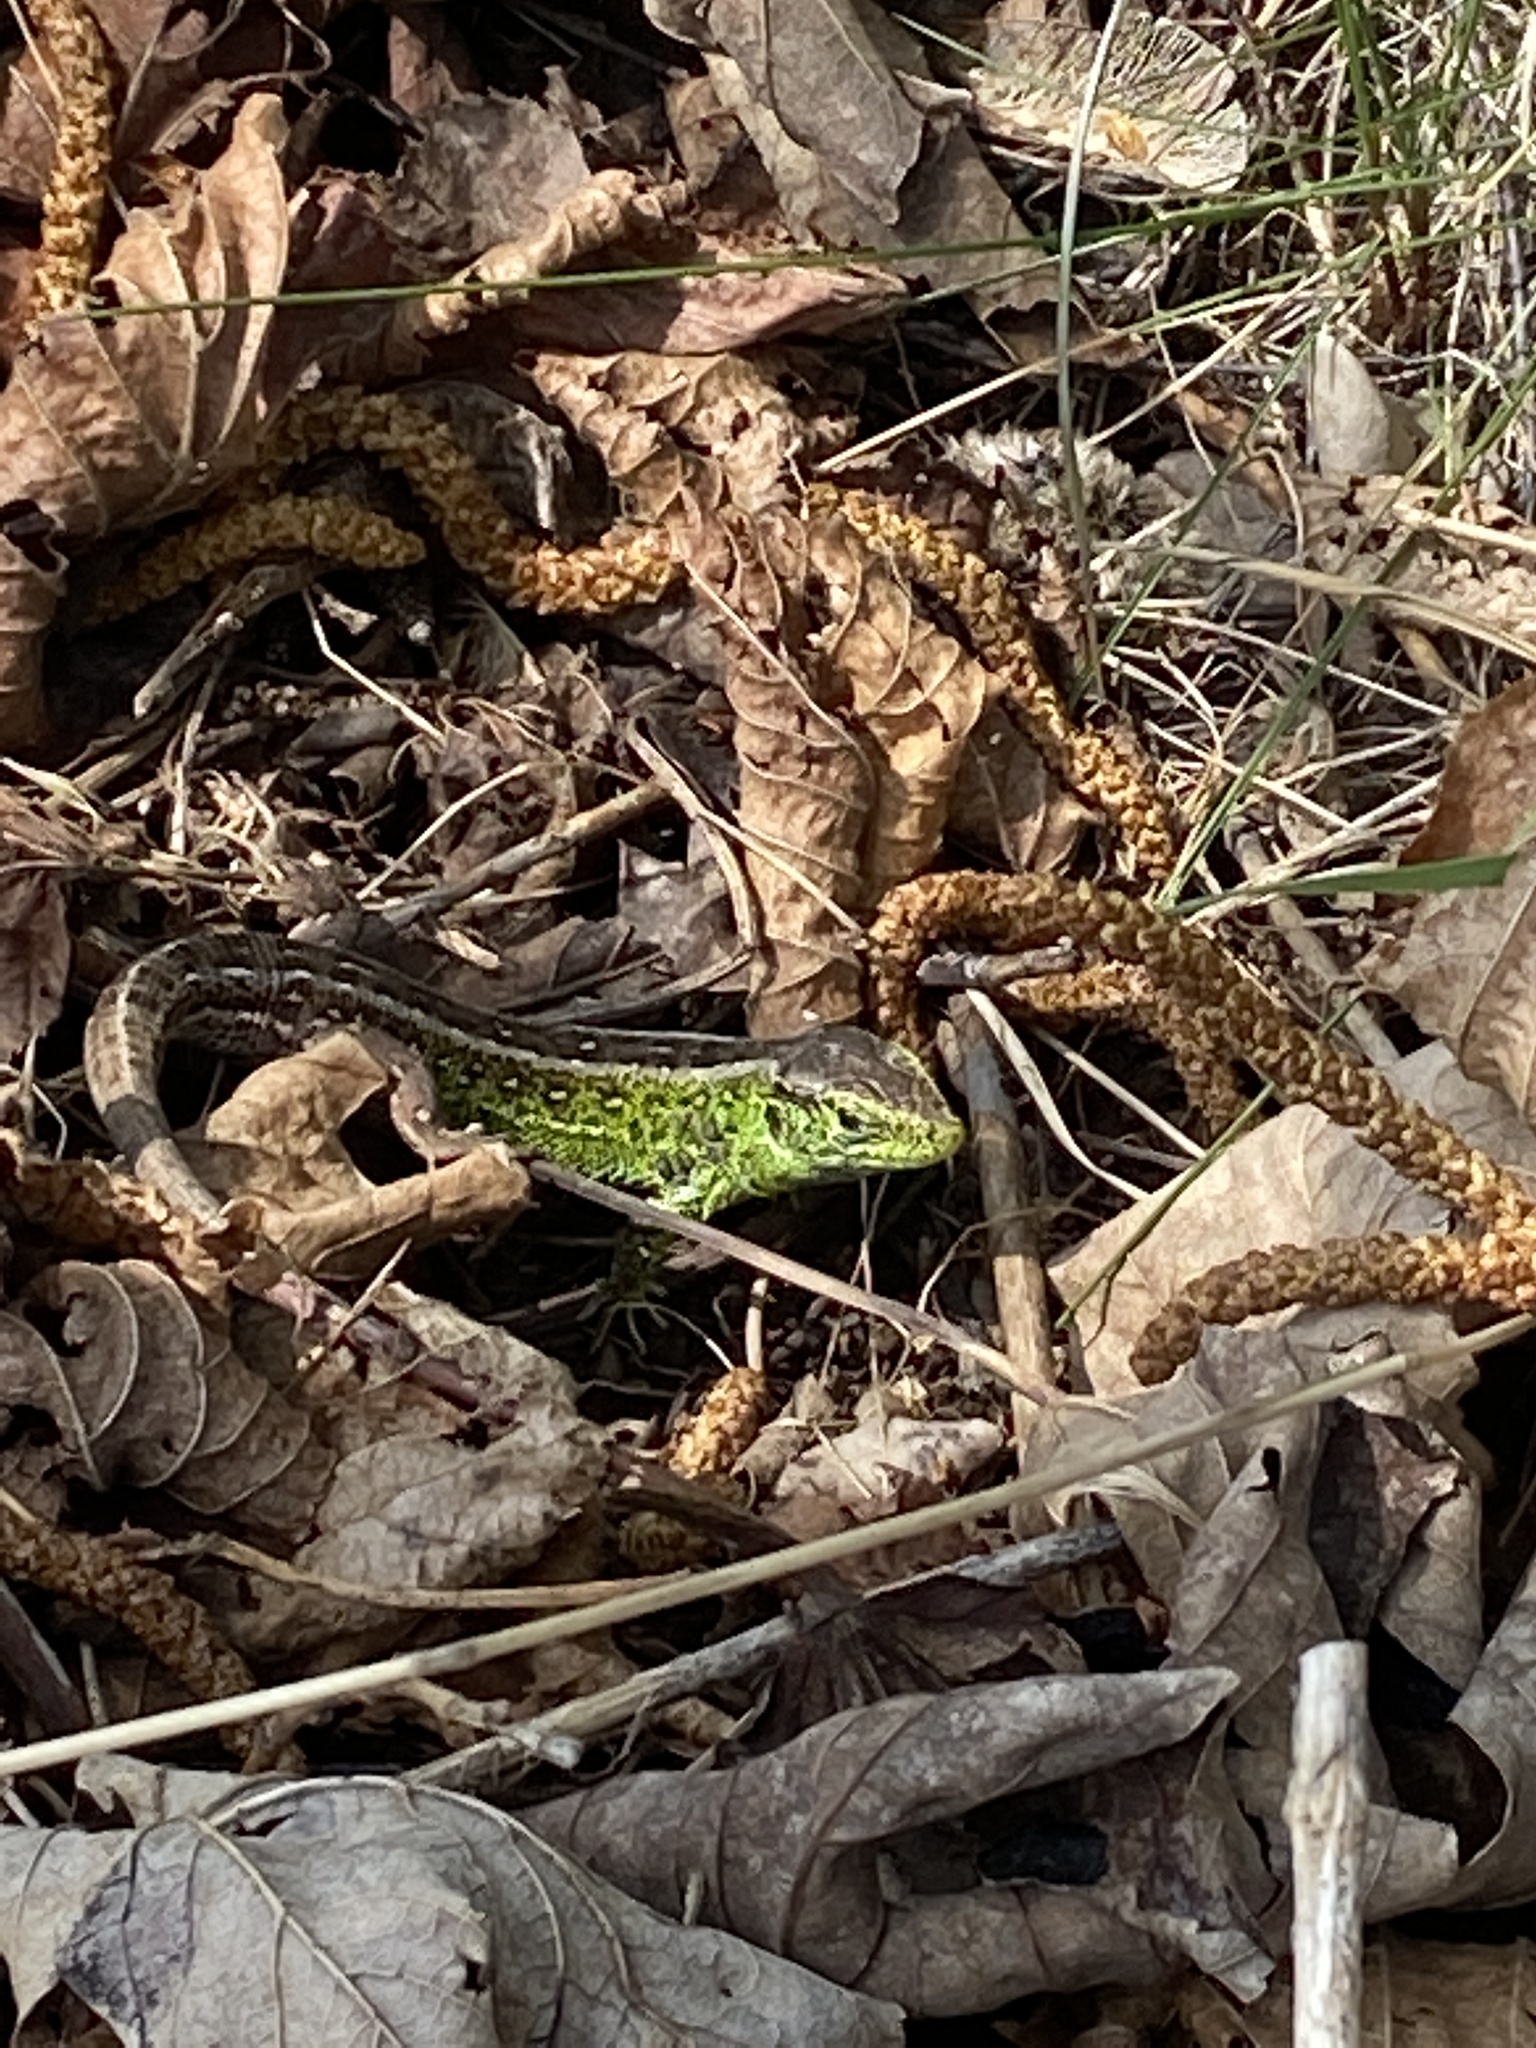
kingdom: Animalia
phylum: Chordata
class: Squamata
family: Lacertidae
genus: Lacerta
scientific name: Lacerta agilis
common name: Sand lizard
